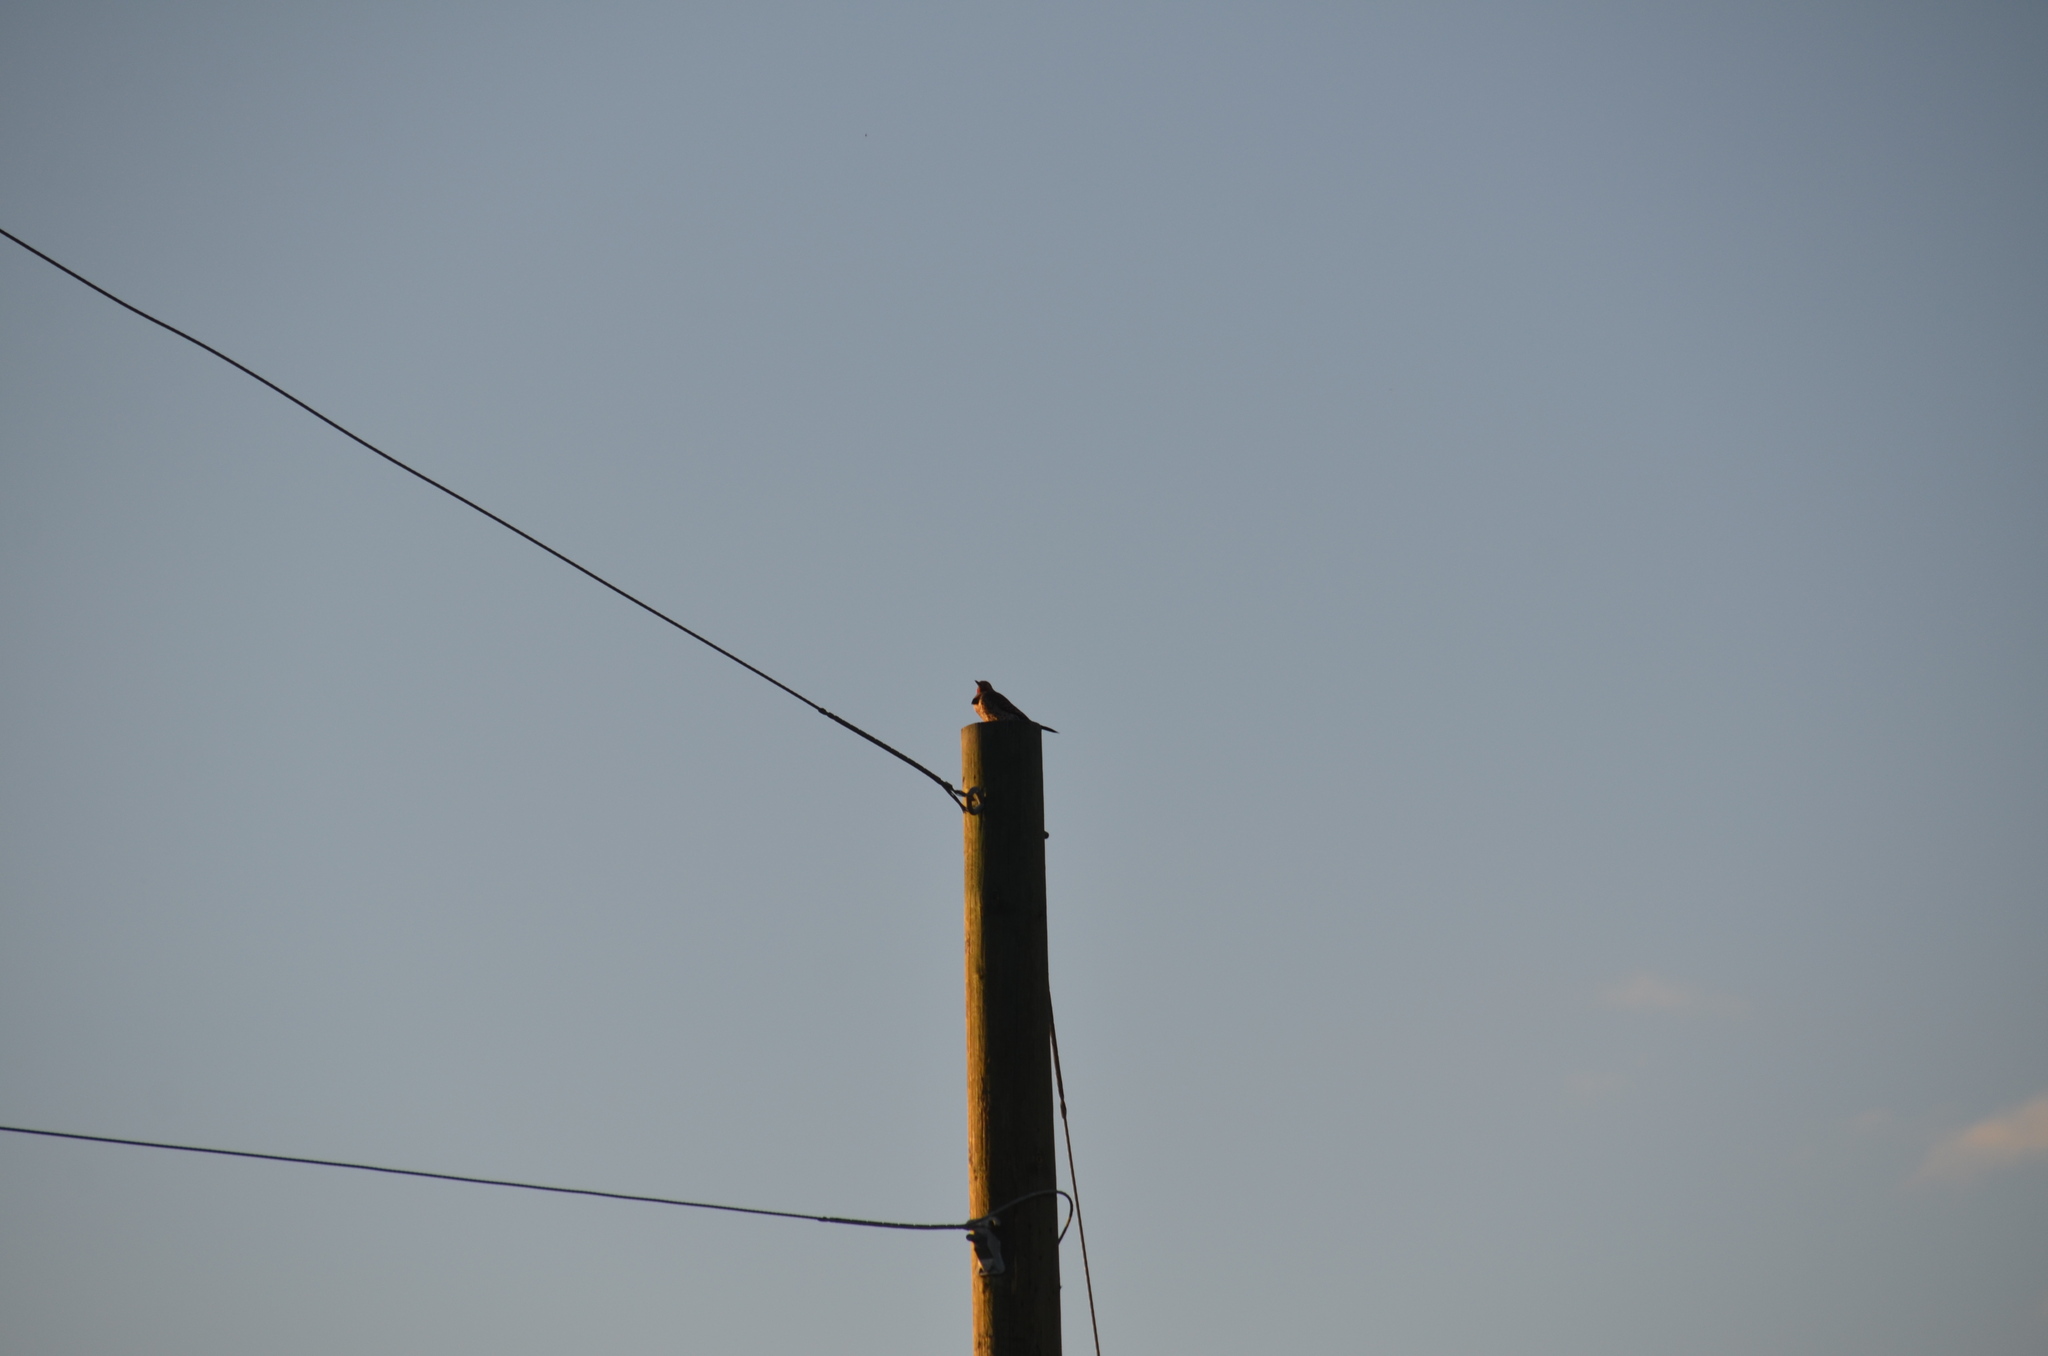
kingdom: Animalia
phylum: Chordata
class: Aves
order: Piciformes
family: Picidae
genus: Colaptes
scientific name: Colaptes auratus
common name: Northern flicker
